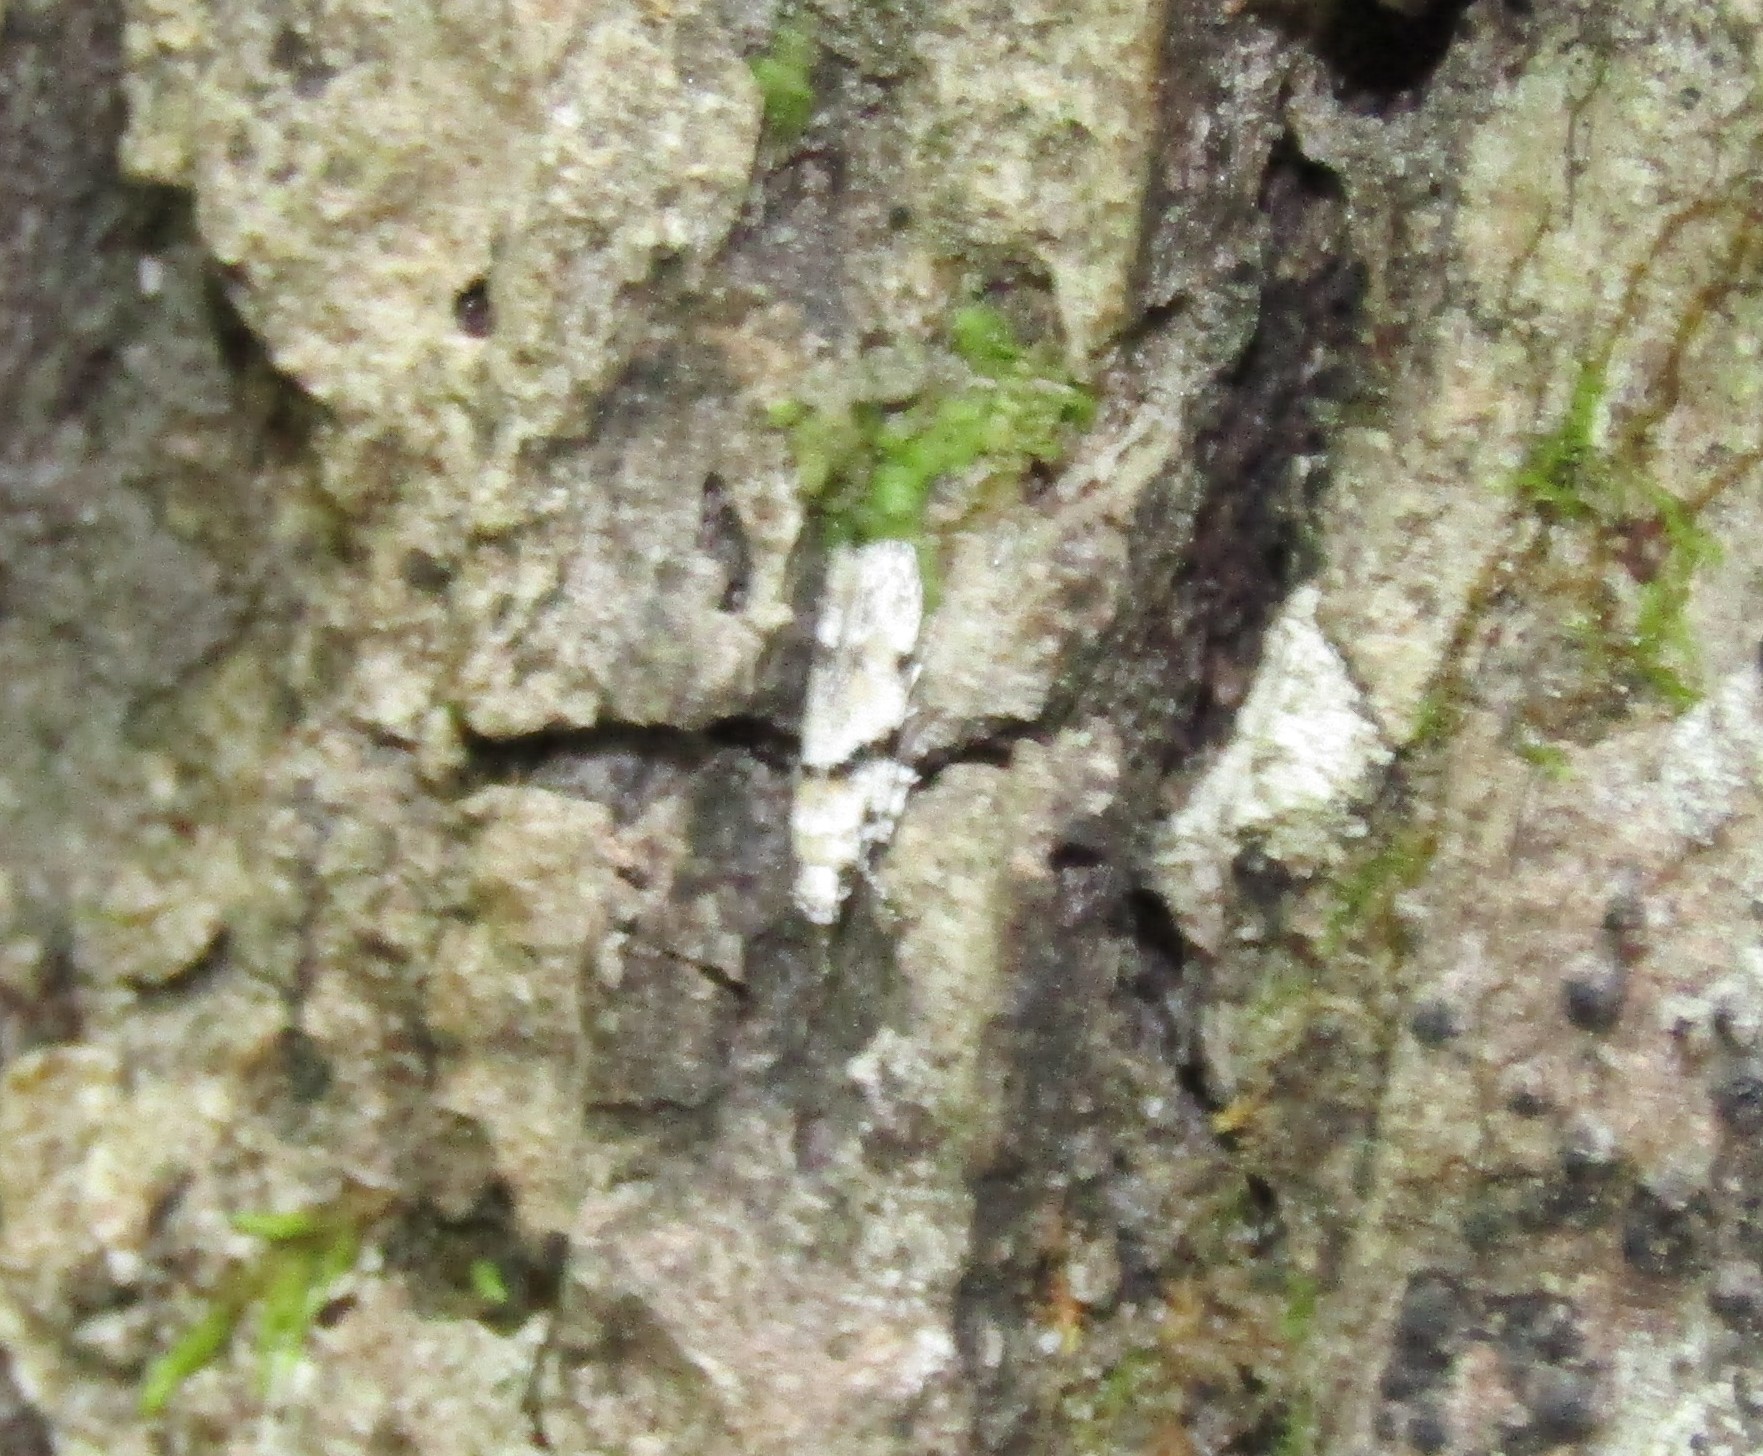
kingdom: Animalia
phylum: Arthropoda
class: Insecta
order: Lepidoptera
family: Gelechiidae
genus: Arogalea
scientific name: Arogalea cristifasciella
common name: White stripe-backed moth
